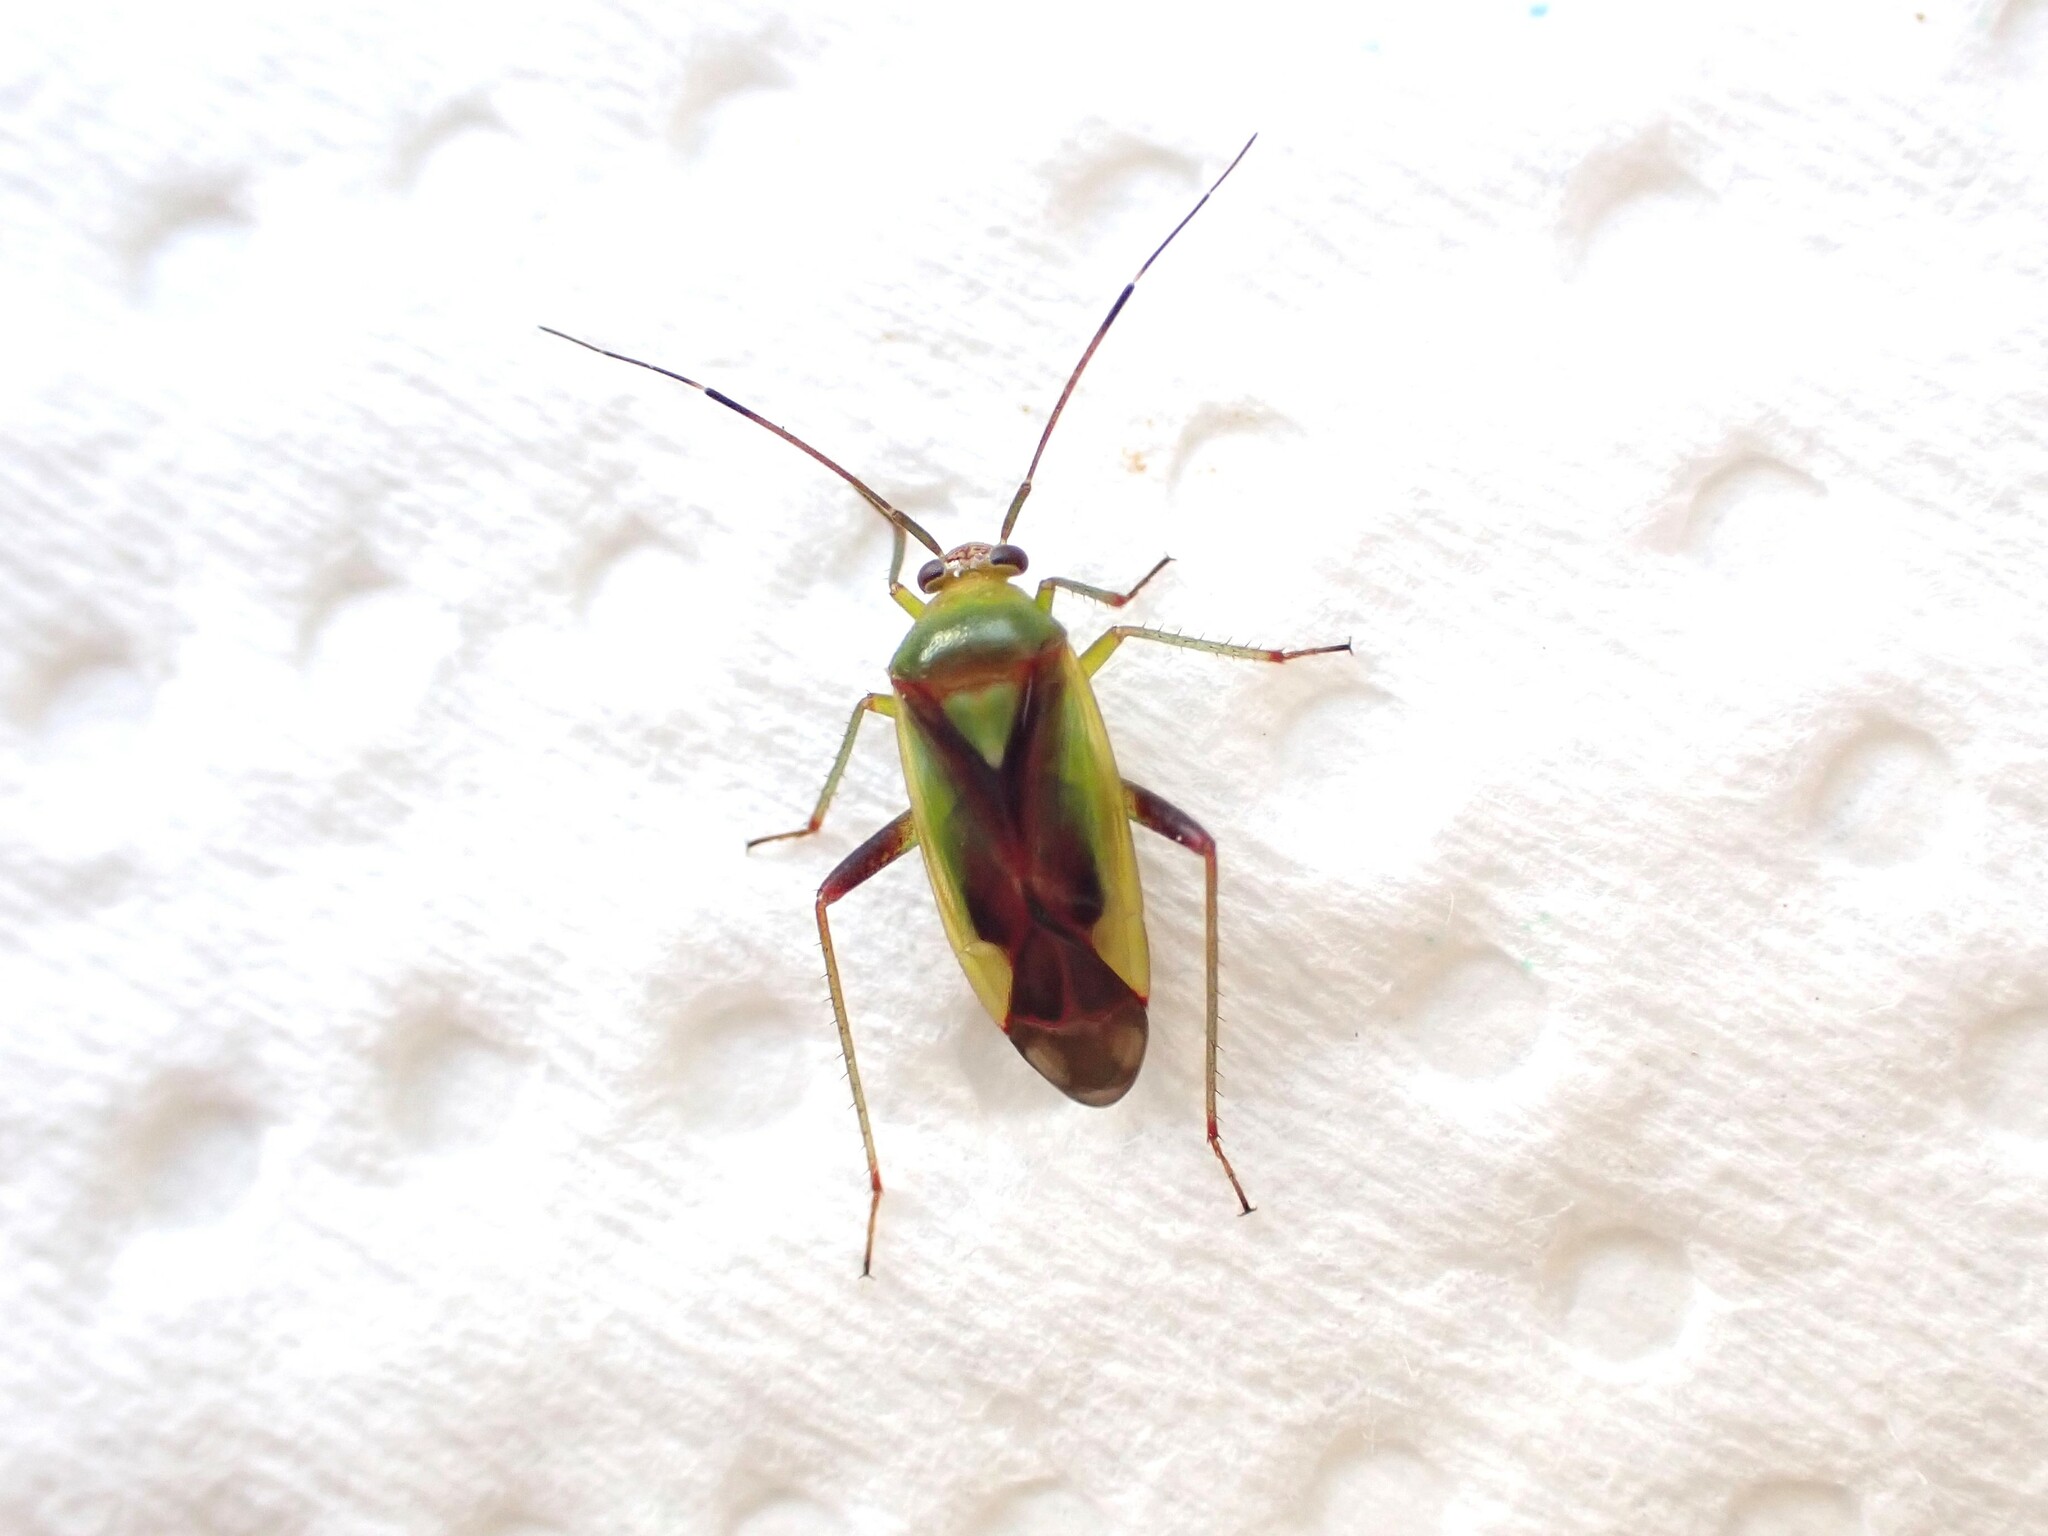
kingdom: Animalia
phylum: Arthropoda
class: Insecta
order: Hemiptera
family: Miridae
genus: Tuicoris
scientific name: Tuicoris lipurus
